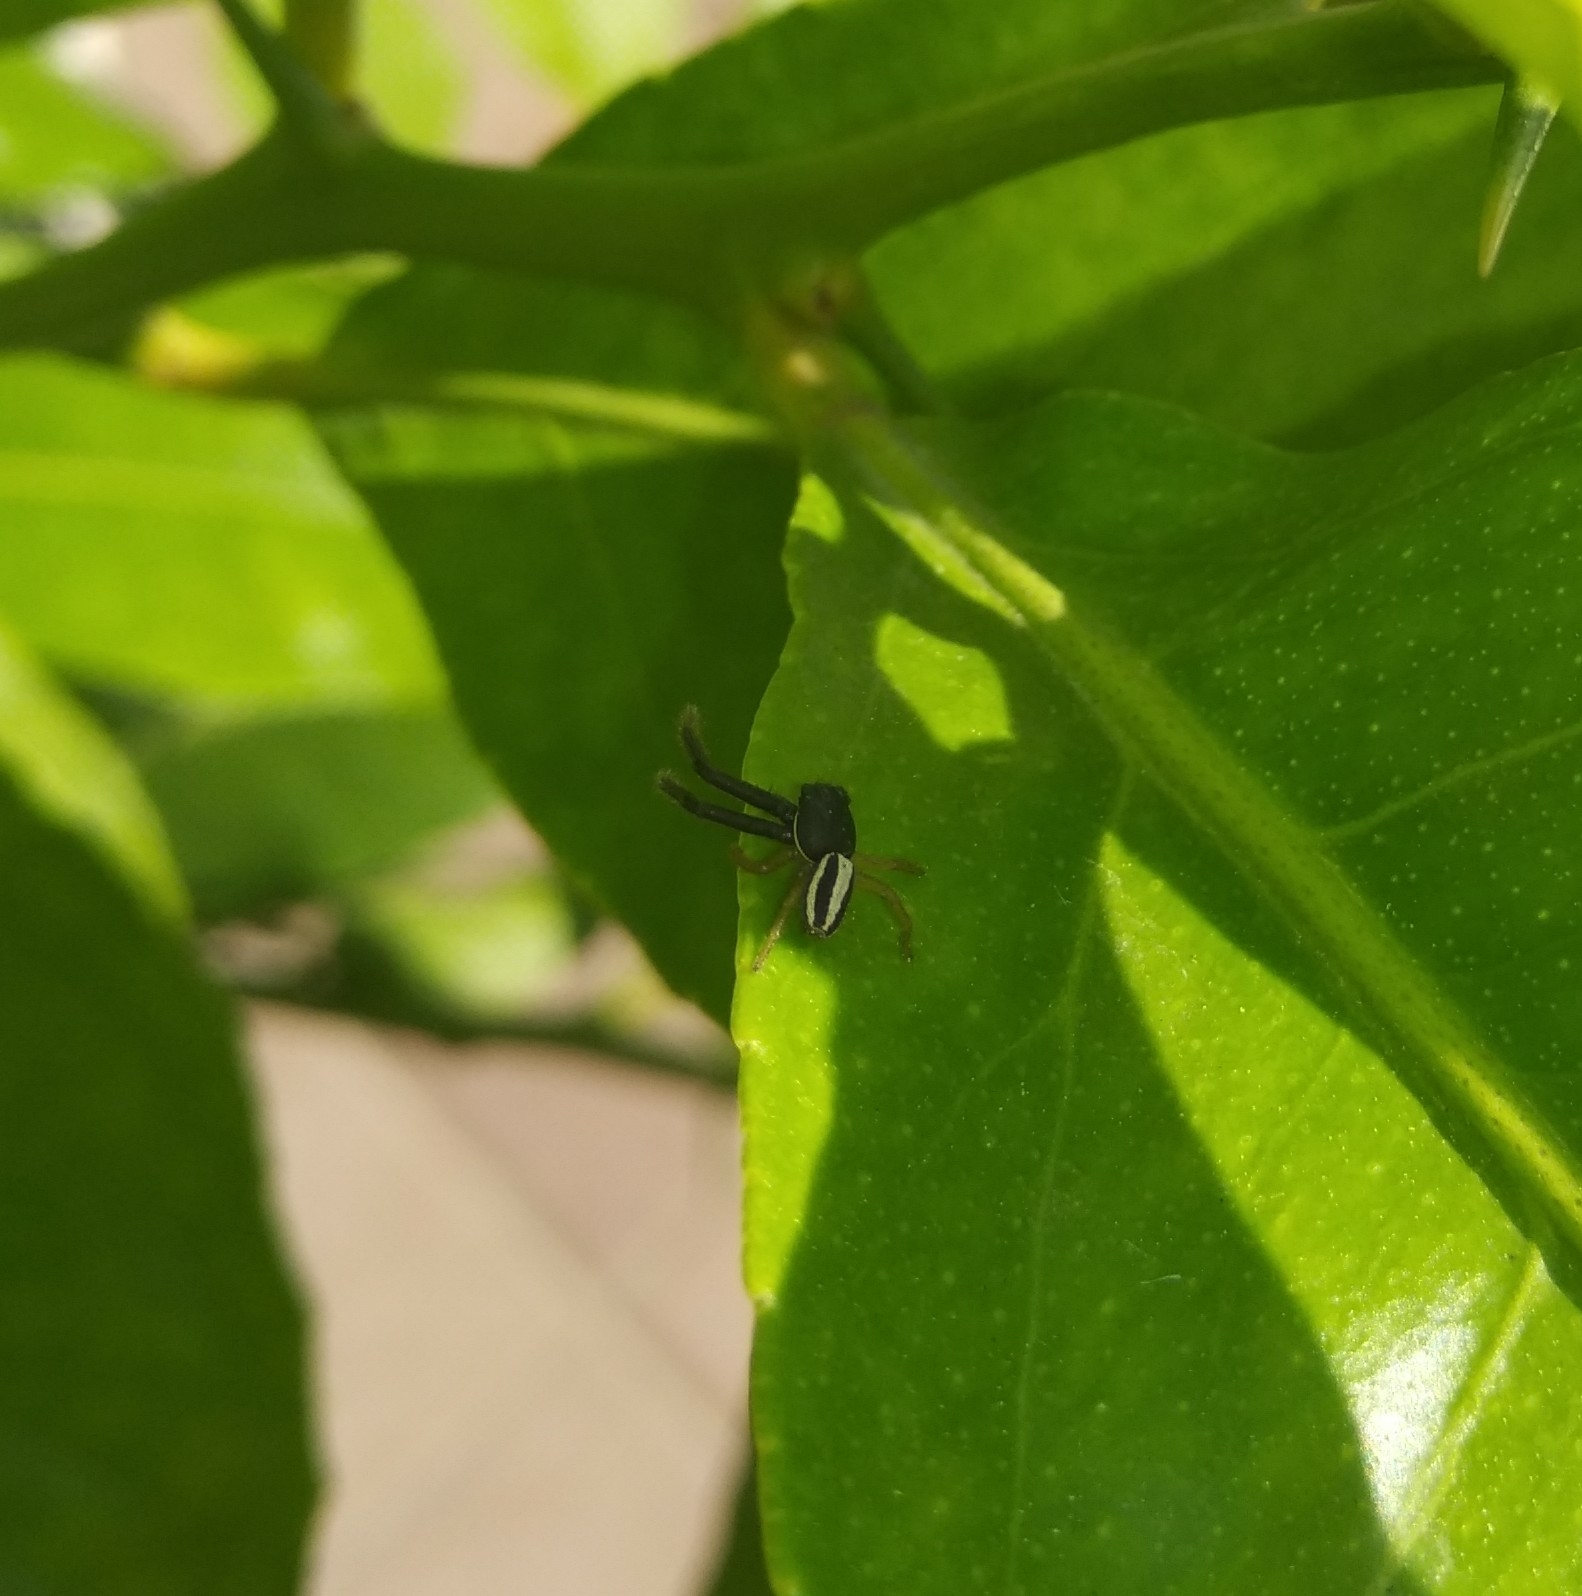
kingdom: Animalia
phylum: Arthropoda
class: Arachnida
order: Araneae
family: Thomisidae
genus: Firmicus
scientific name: Firmicus bivittatus
